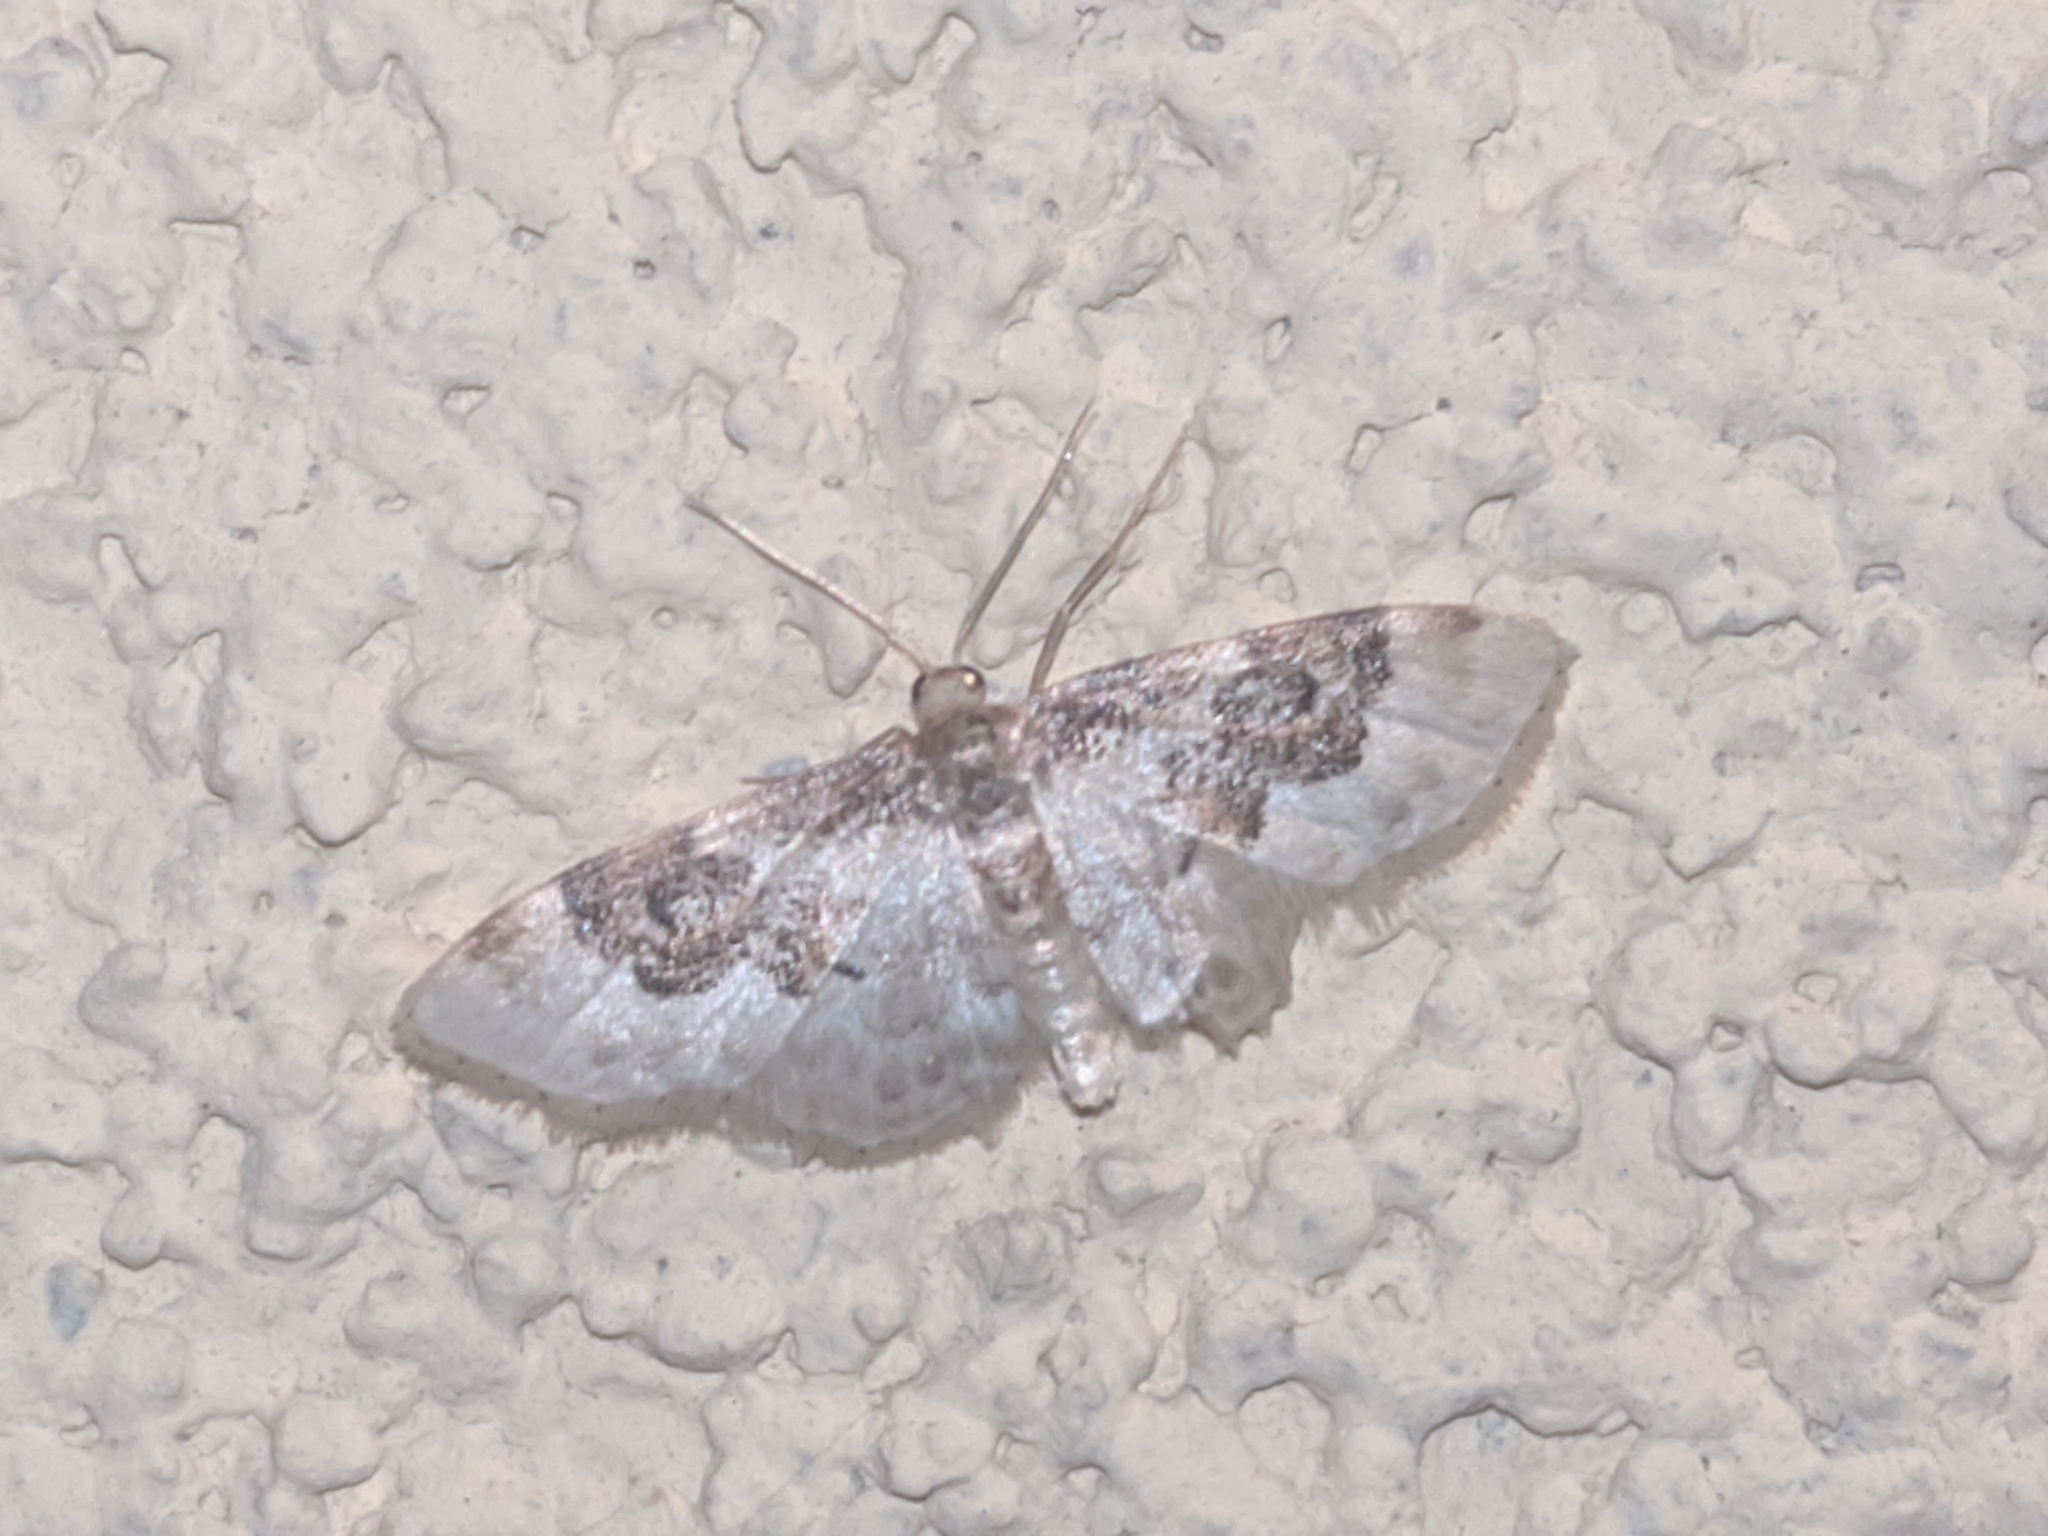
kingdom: Animalia
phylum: Arthropoda
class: Insecta
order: Lepidoptera
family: Geometridae
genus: Idaea
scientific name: Idaea rusticata
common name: Least carpet
